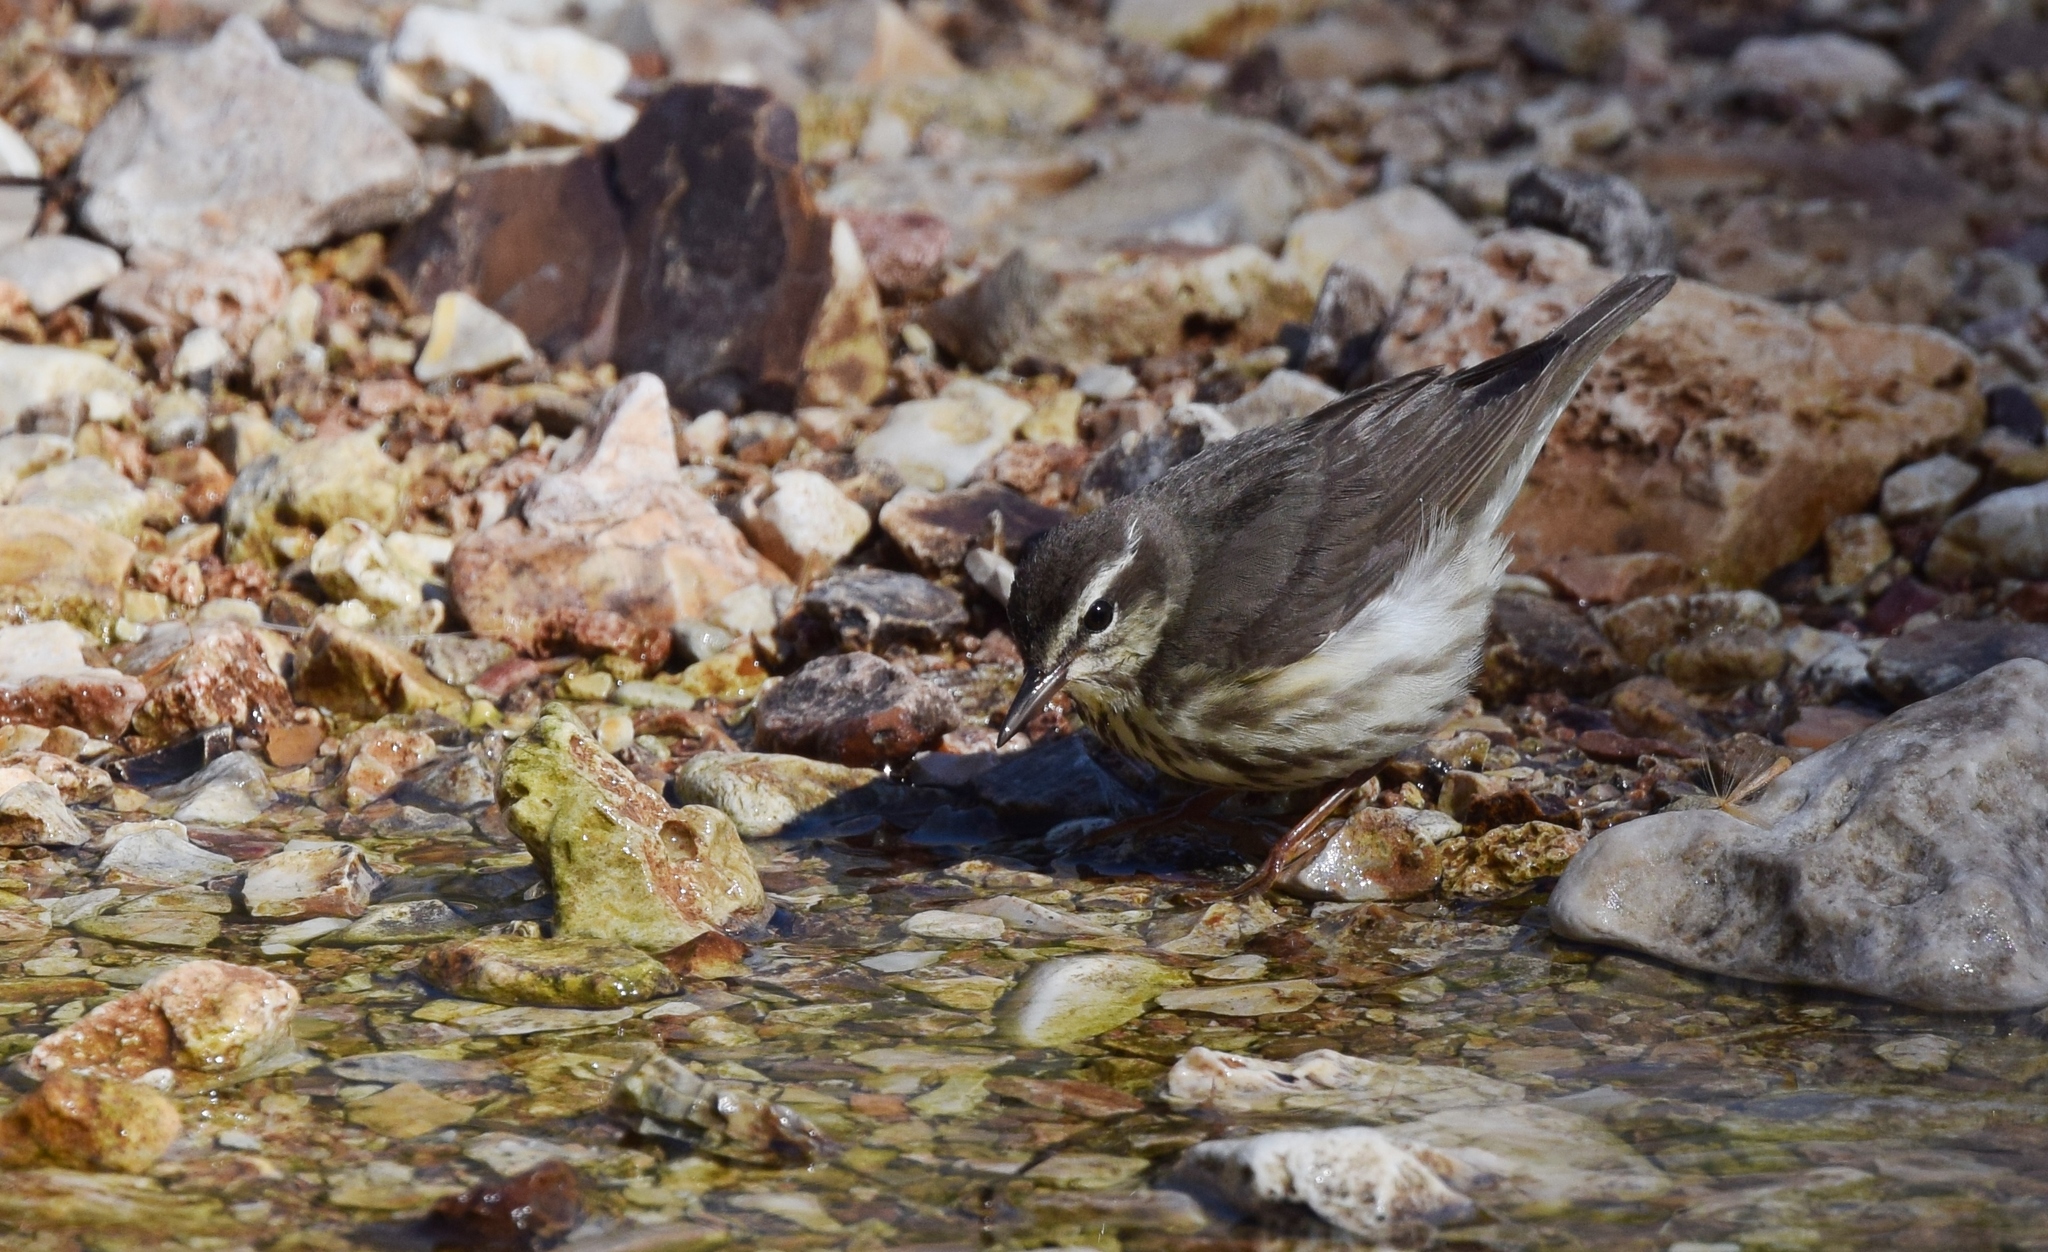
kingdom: Animalia
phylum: Chordata
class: Aves
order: Passeriformes
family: Parulidae
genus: Parkesia
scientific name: Parkesia motacilla
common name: Louisiana waterthrush
